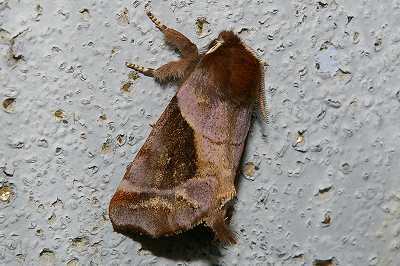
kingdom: Animalia
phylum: Arthropoda
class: Insecta
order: Lepidoptera
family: Notodontidae
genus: Gonoclostera
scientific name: Gonoclostera timoniorum
